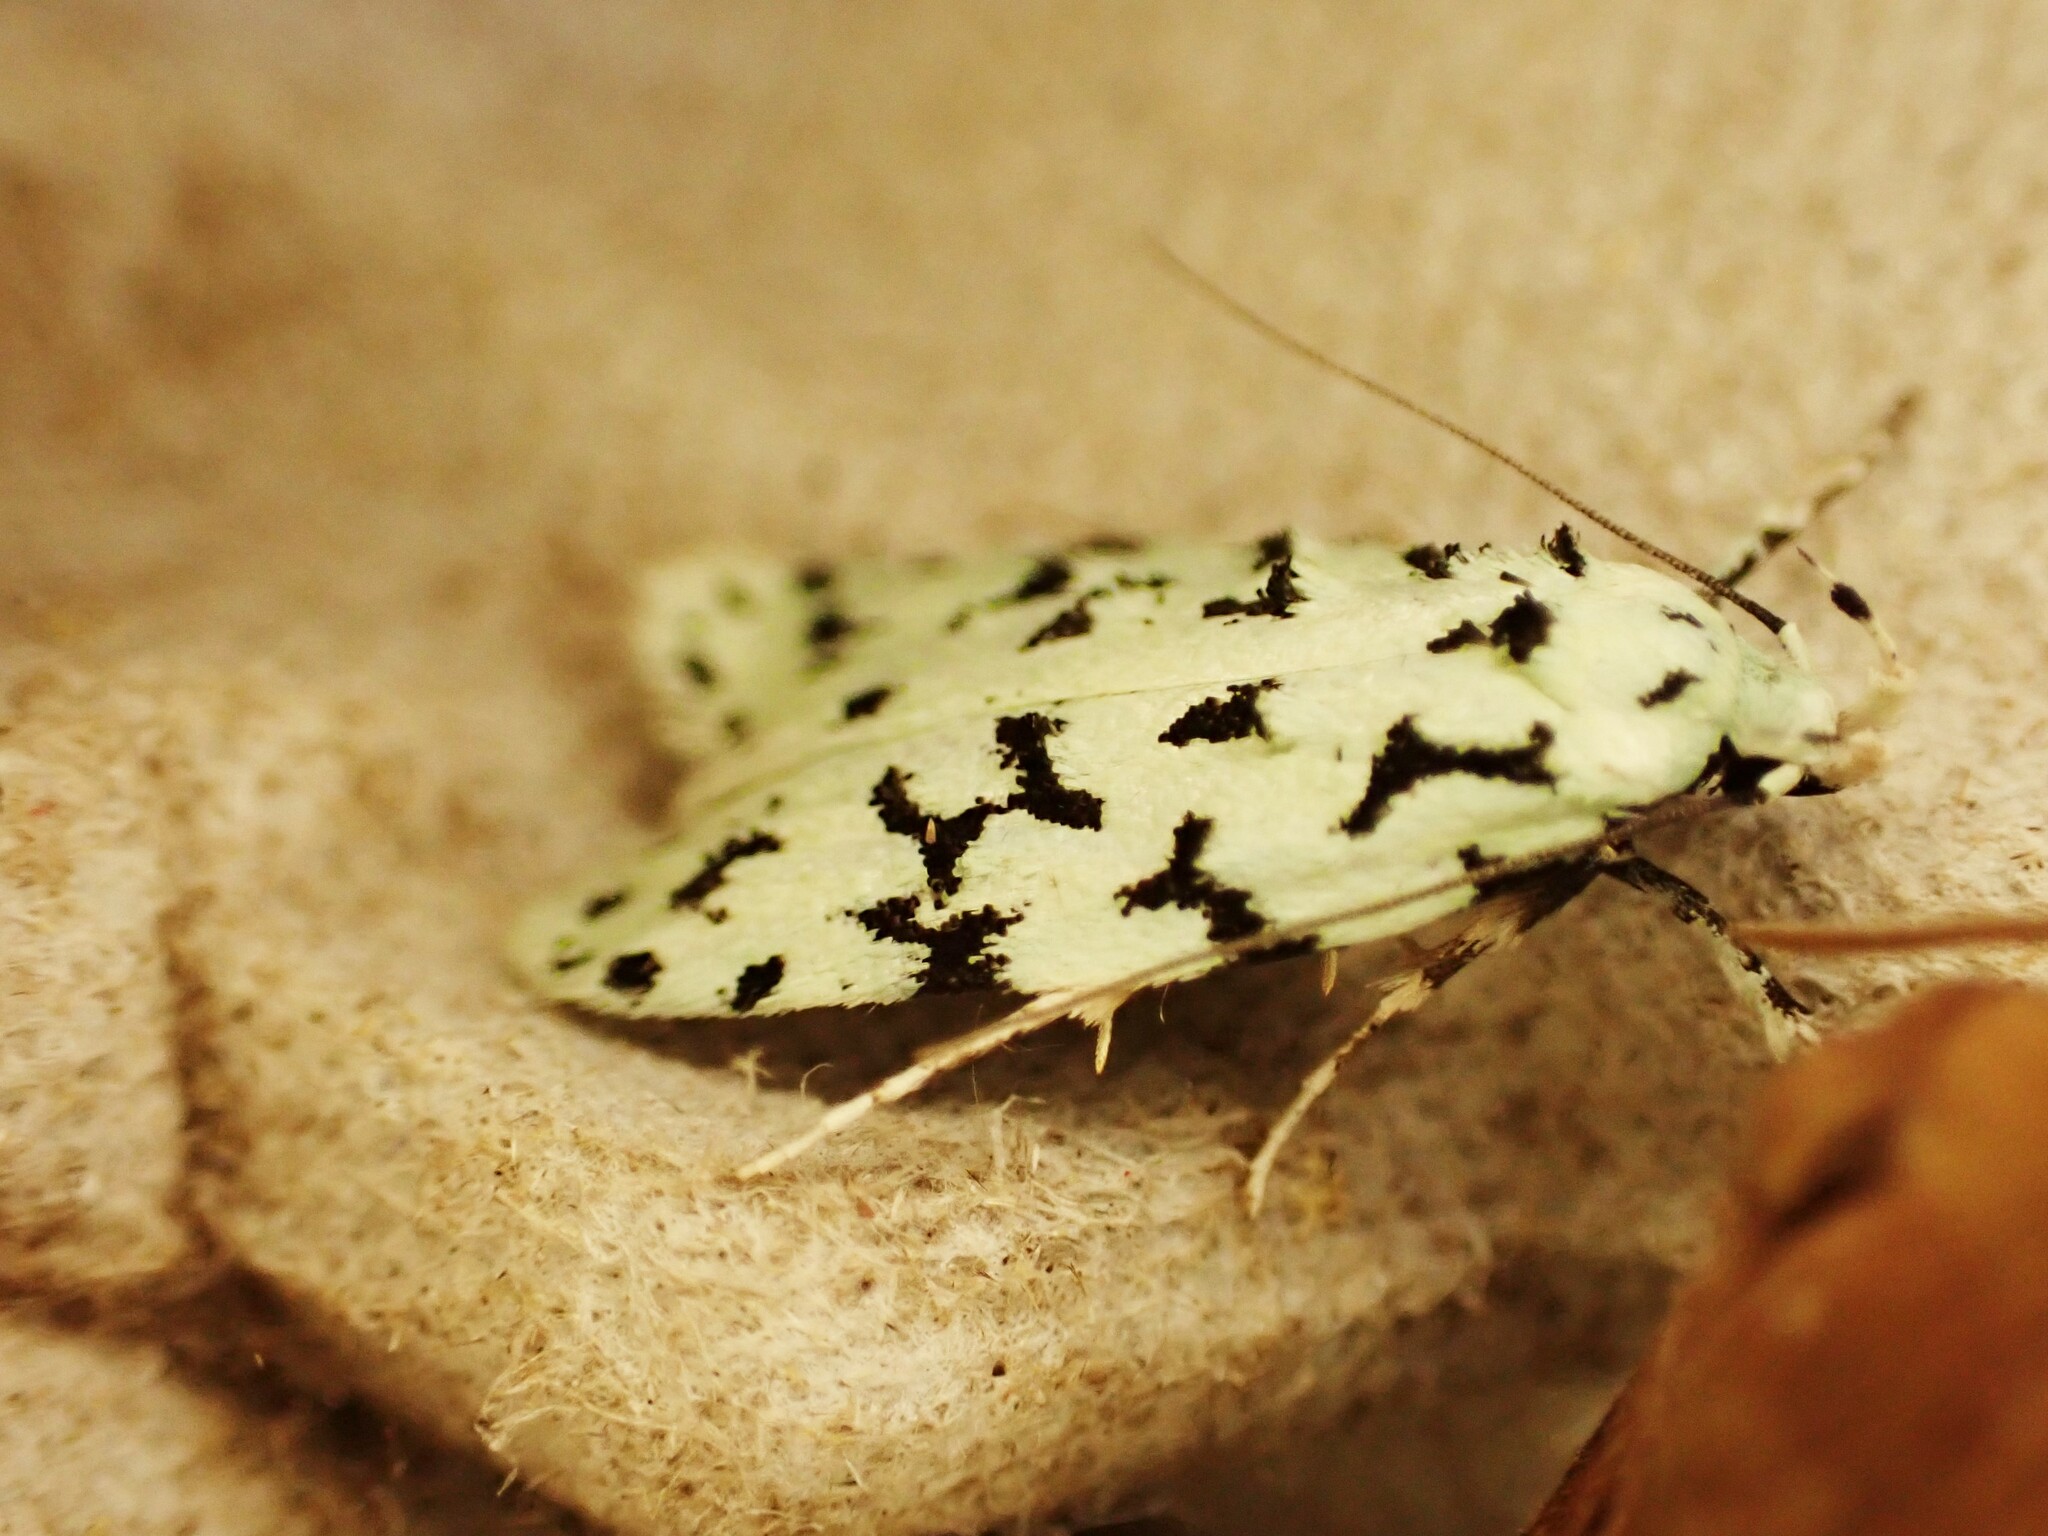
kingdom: Animalia
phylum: Arthropoda
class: Insecta
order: Lepidoptera
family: Oecophoridae
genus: Izatha
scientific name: Izatha huttoni
